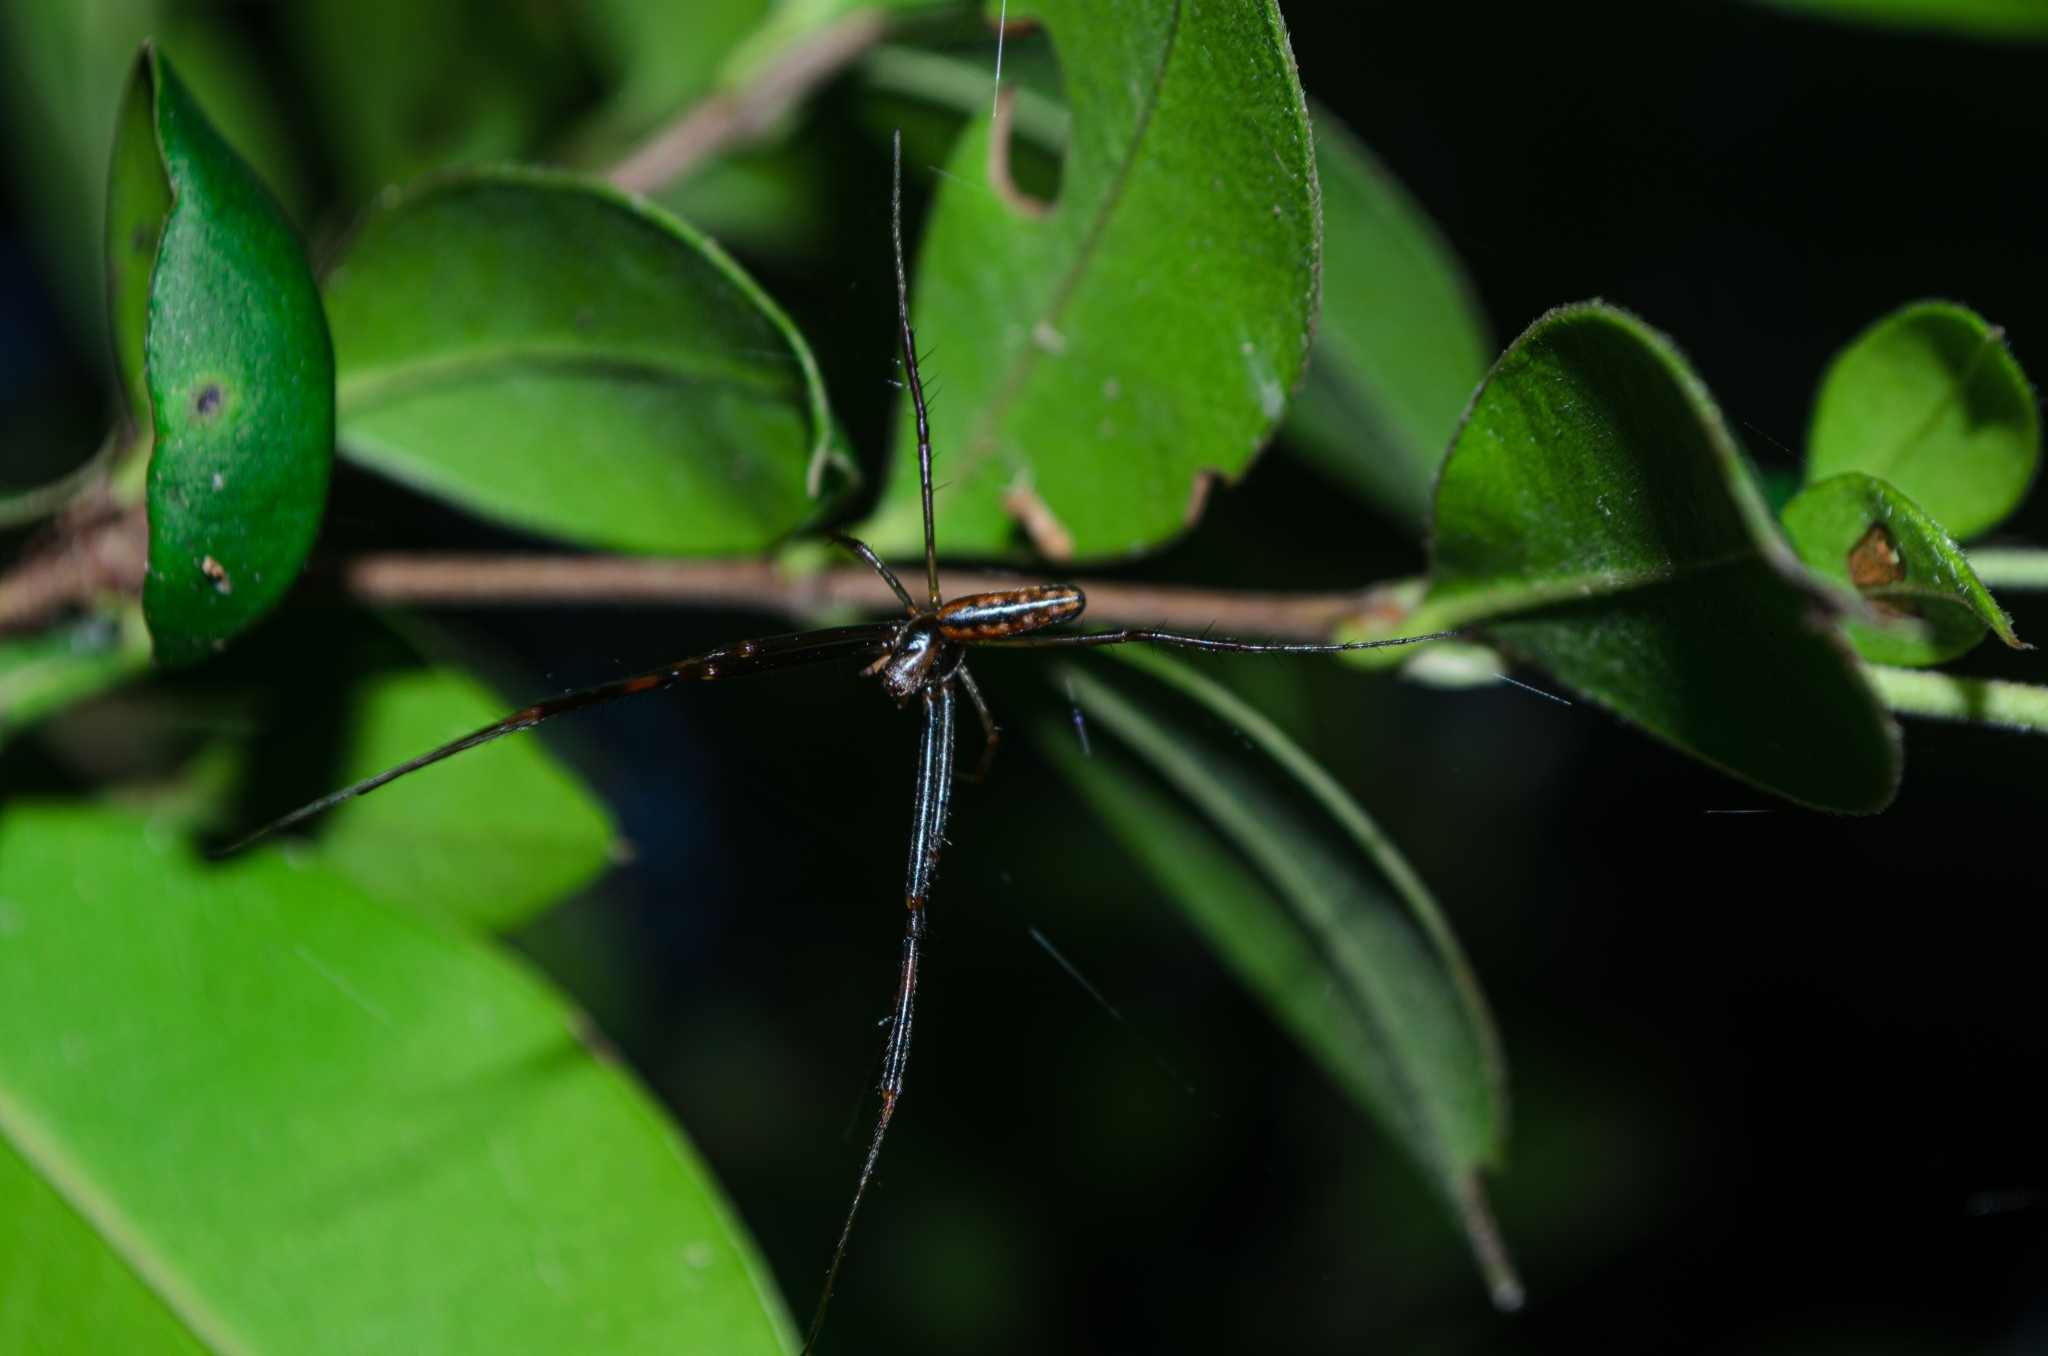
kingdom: Animalia
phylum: Arthropoda
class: Arachnida
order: Araneae
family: Araneidae
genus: Trichonephila
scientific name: Trichonephila clavipes
